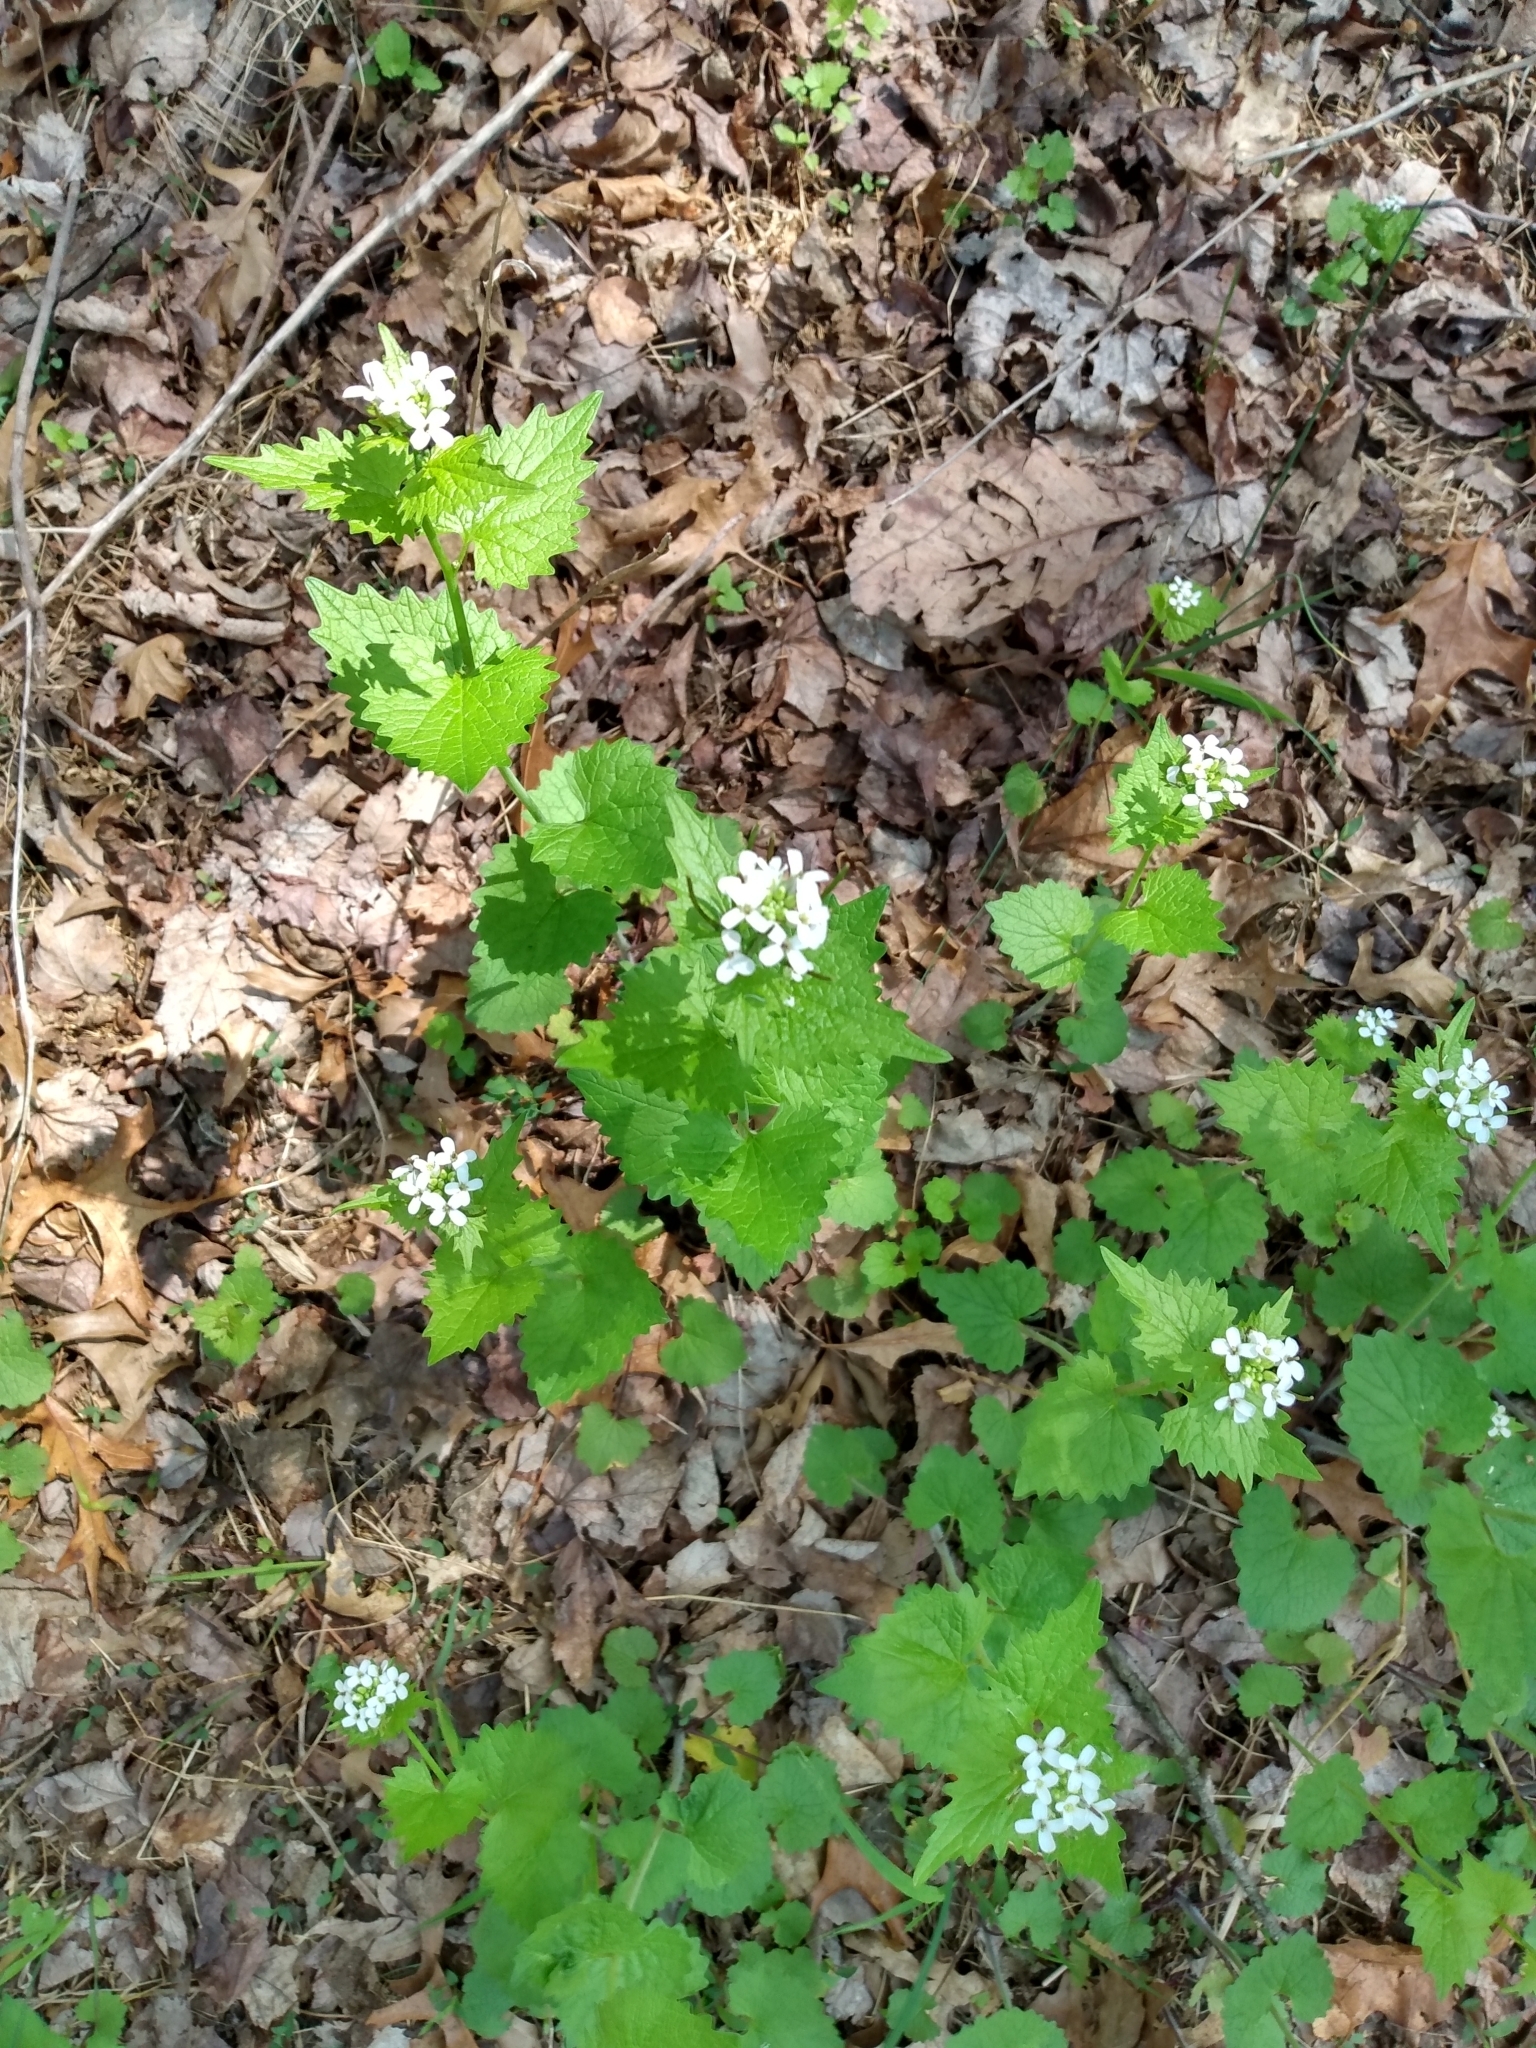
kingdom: Plantae
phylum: Tracheophyta
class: Magnoliopsida
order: Brassicales
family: Brassicaceae
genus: Alliaria
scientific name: Alliaria petiolata
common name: Garlic mustard
